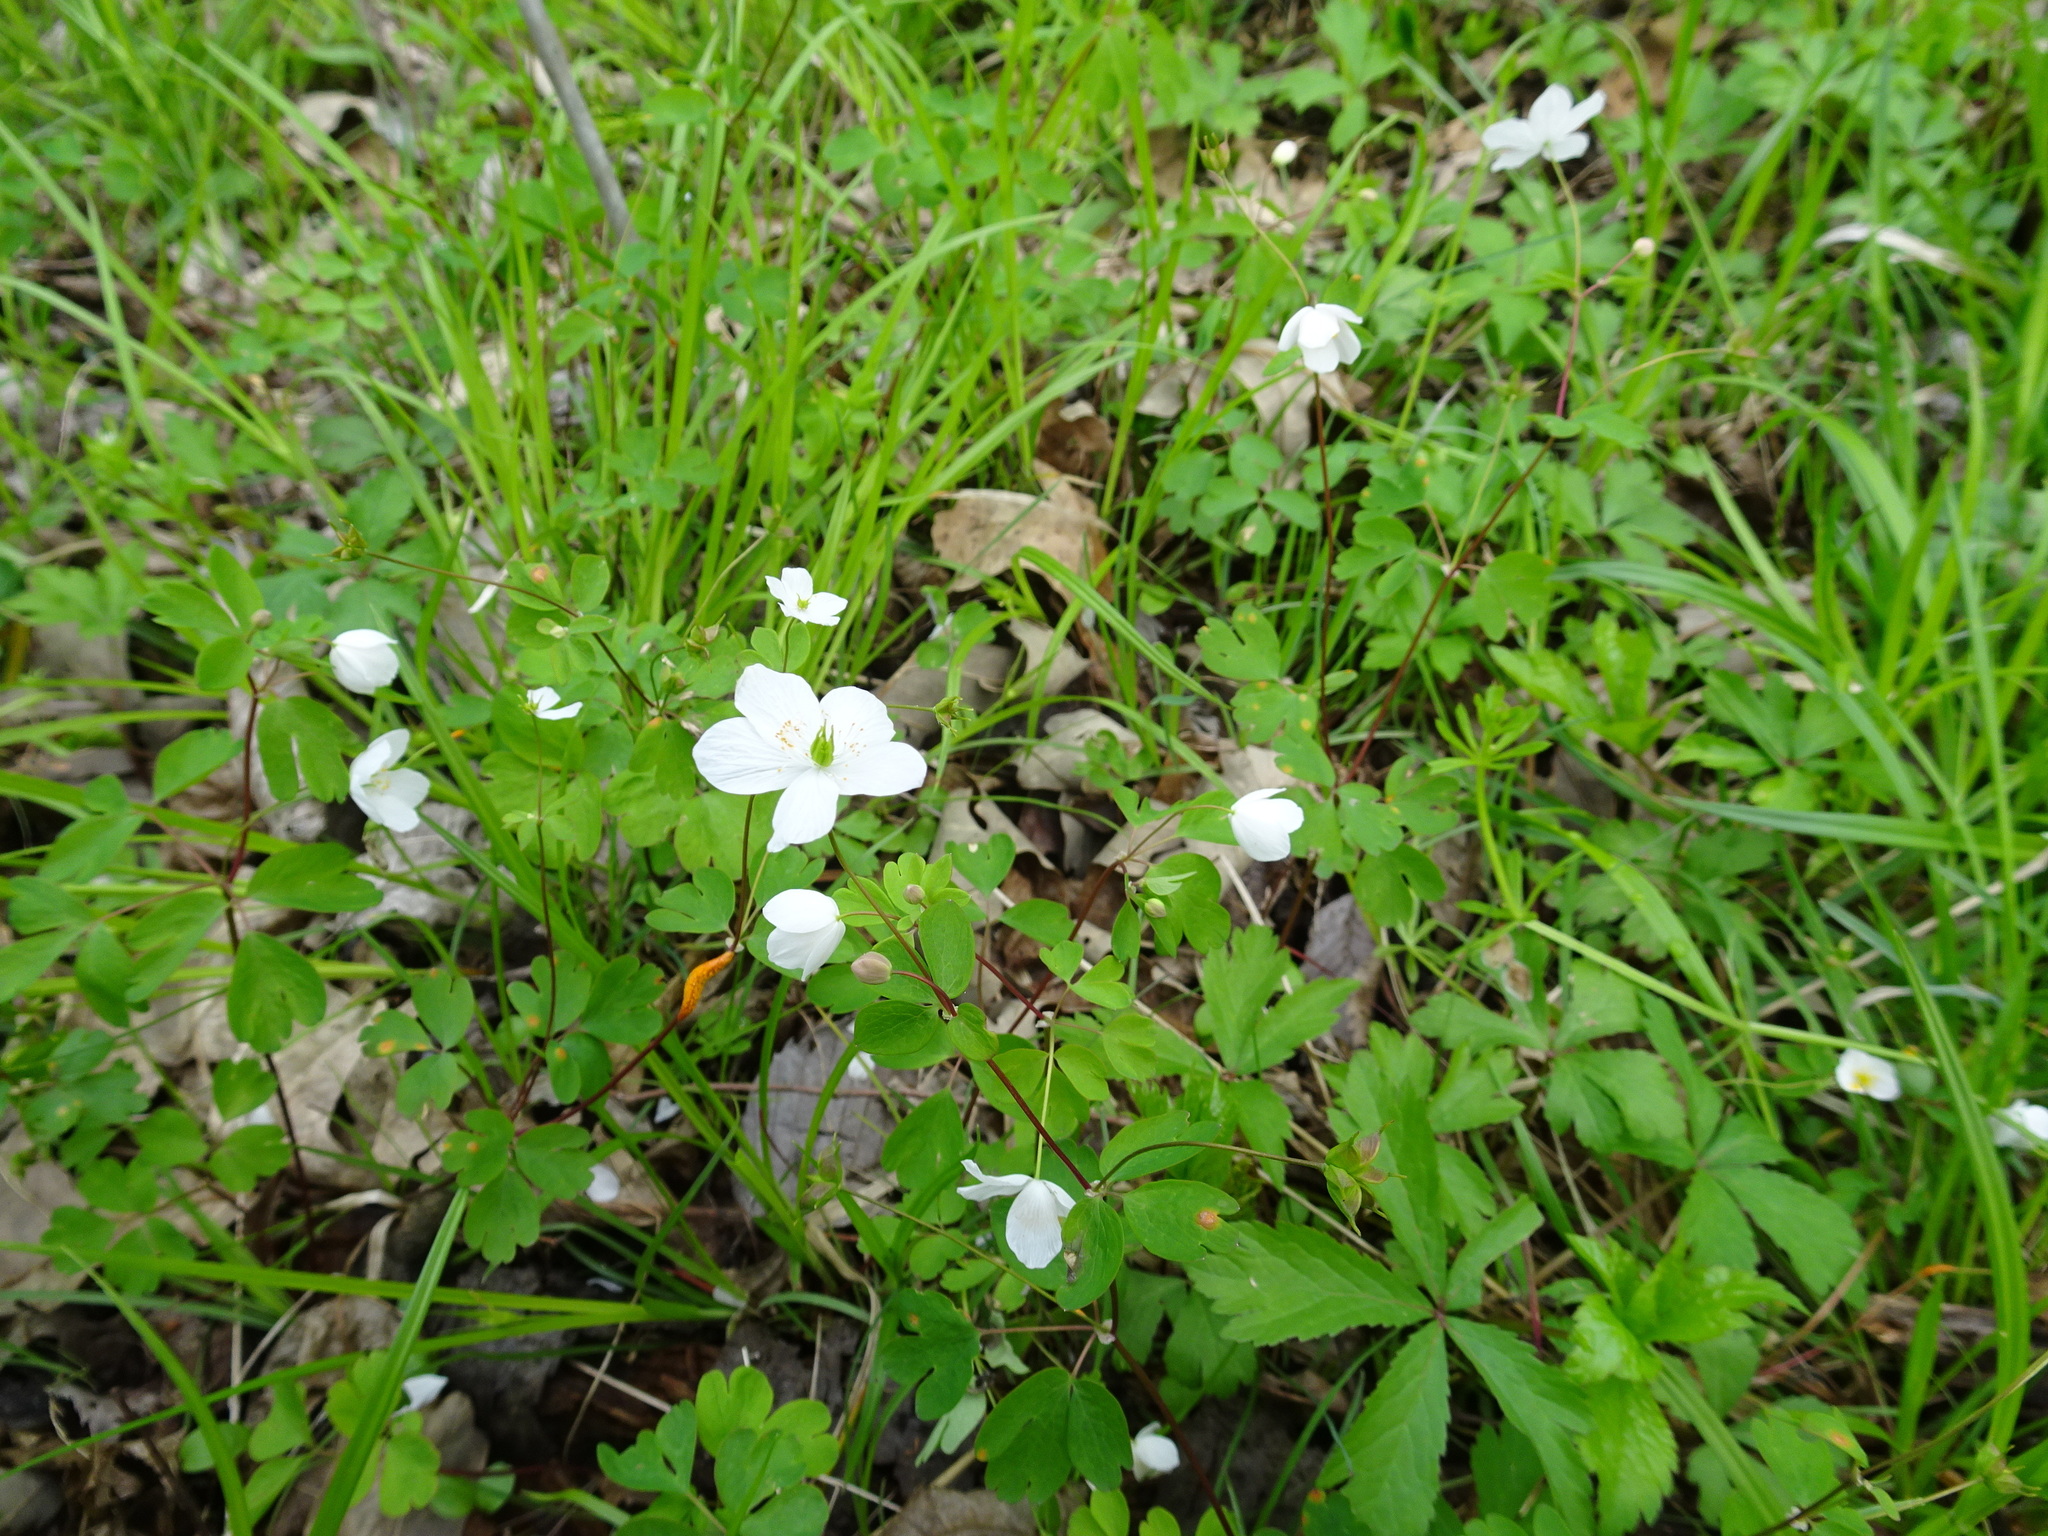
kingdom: Plantae
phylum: Tracheophyta
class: Magnoliopsida
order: Ranunculales
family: Ranunculaceae
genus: Enemion
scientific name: Enemion biternatum
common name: Eastern false rue-anemone
